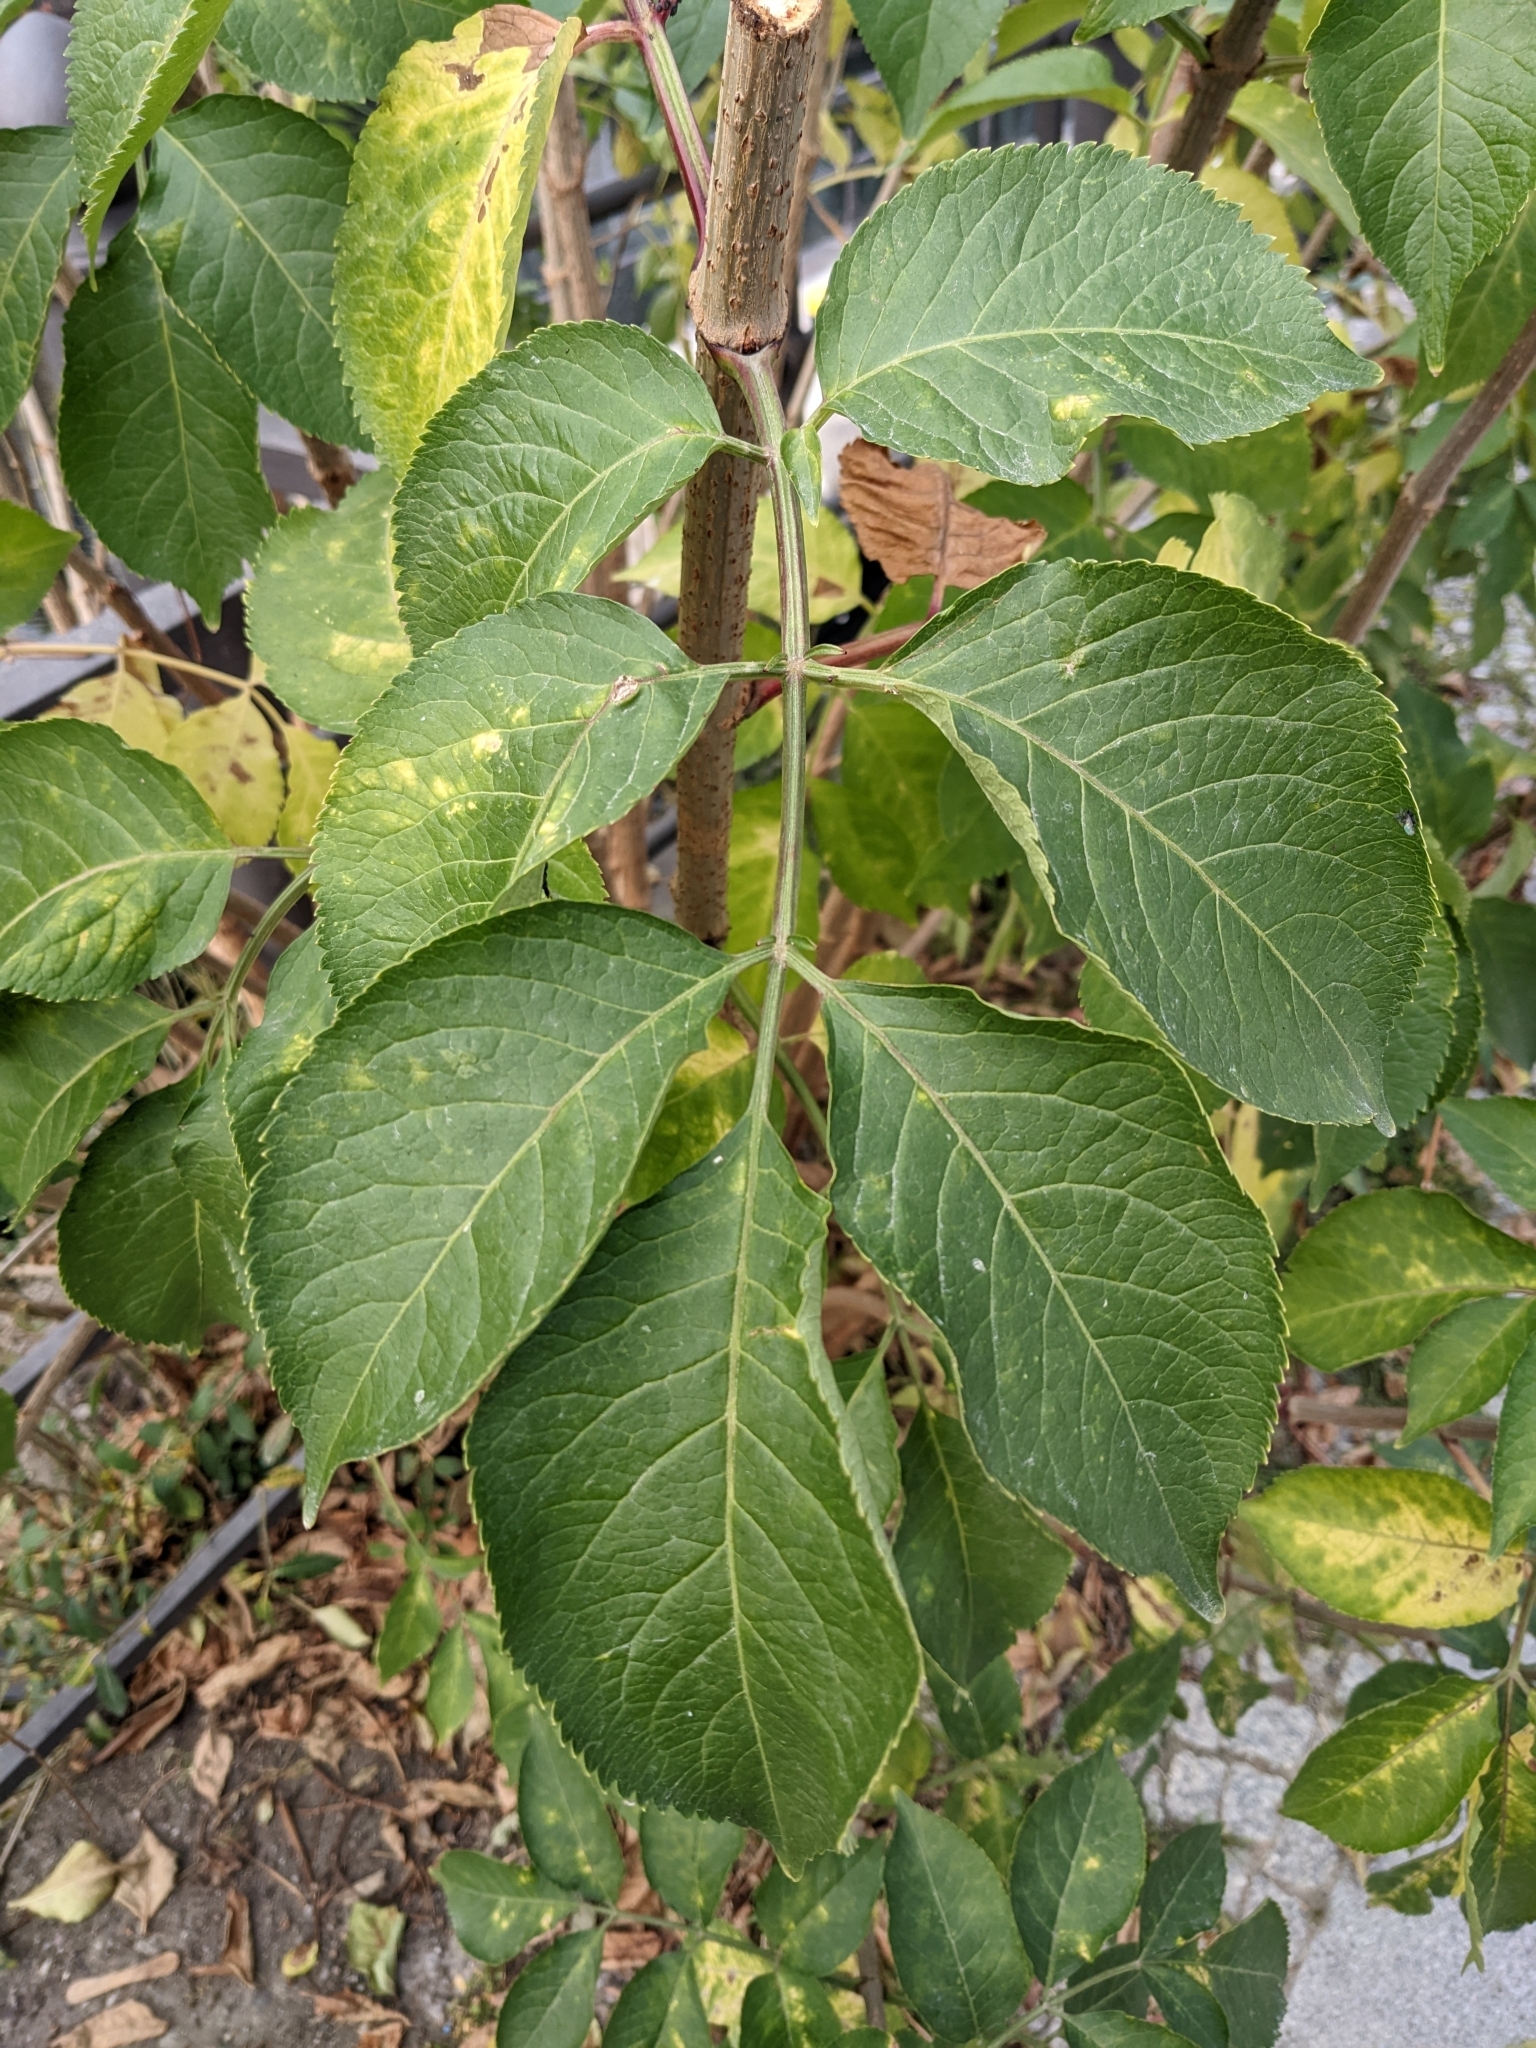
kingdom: Plantae
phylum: Tracheophyta
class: Magnoliopsida
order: Dipsacales
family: Viburnaceae
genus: Sambucus
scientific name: Sambucus nigra
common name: Elder
